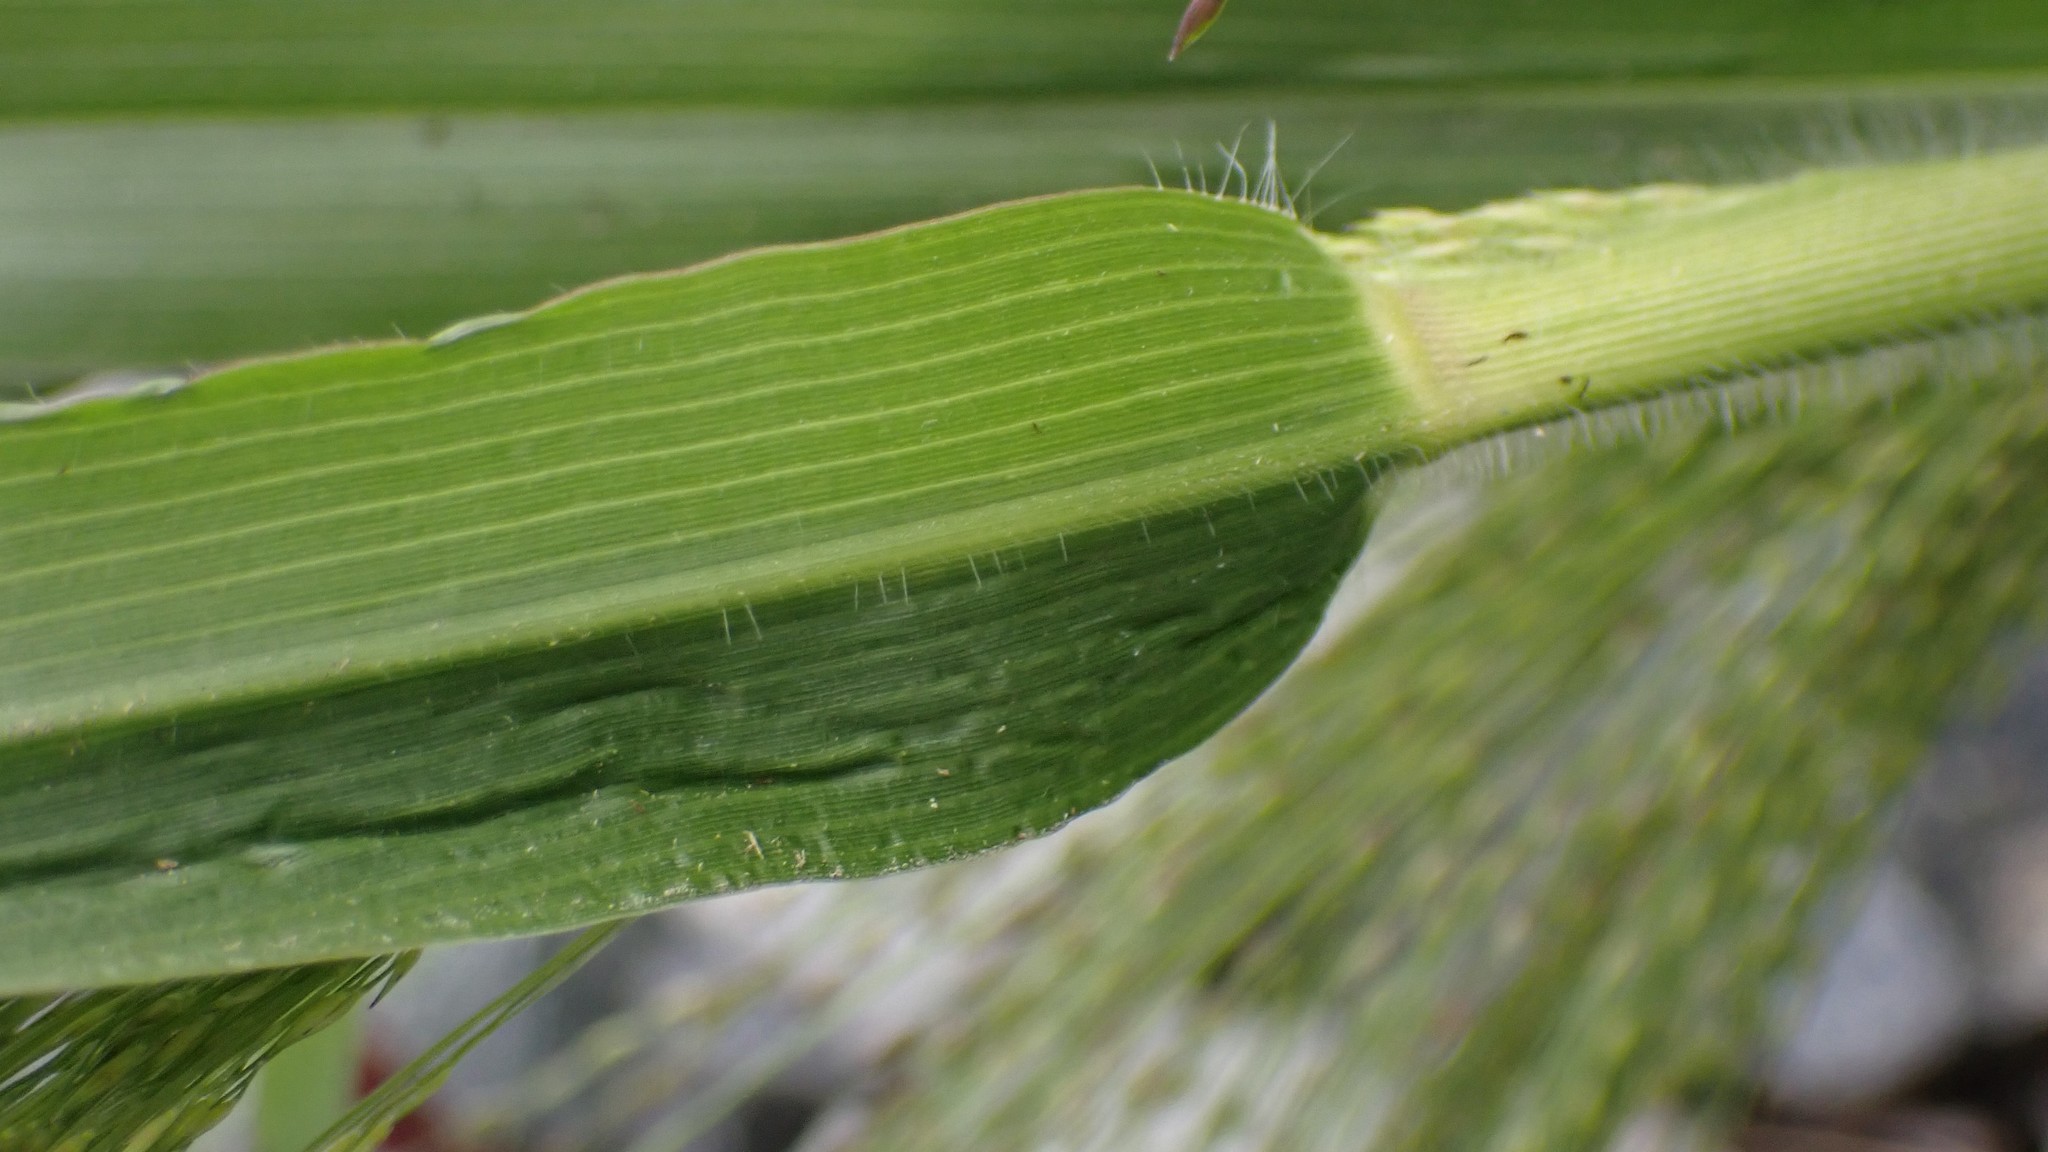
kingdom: Plantae
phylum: Tracheophyta
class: Liliopsida
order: Poales
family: Poaceae
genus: Panicum
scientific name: Panicum capillare
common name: Witch-grass
